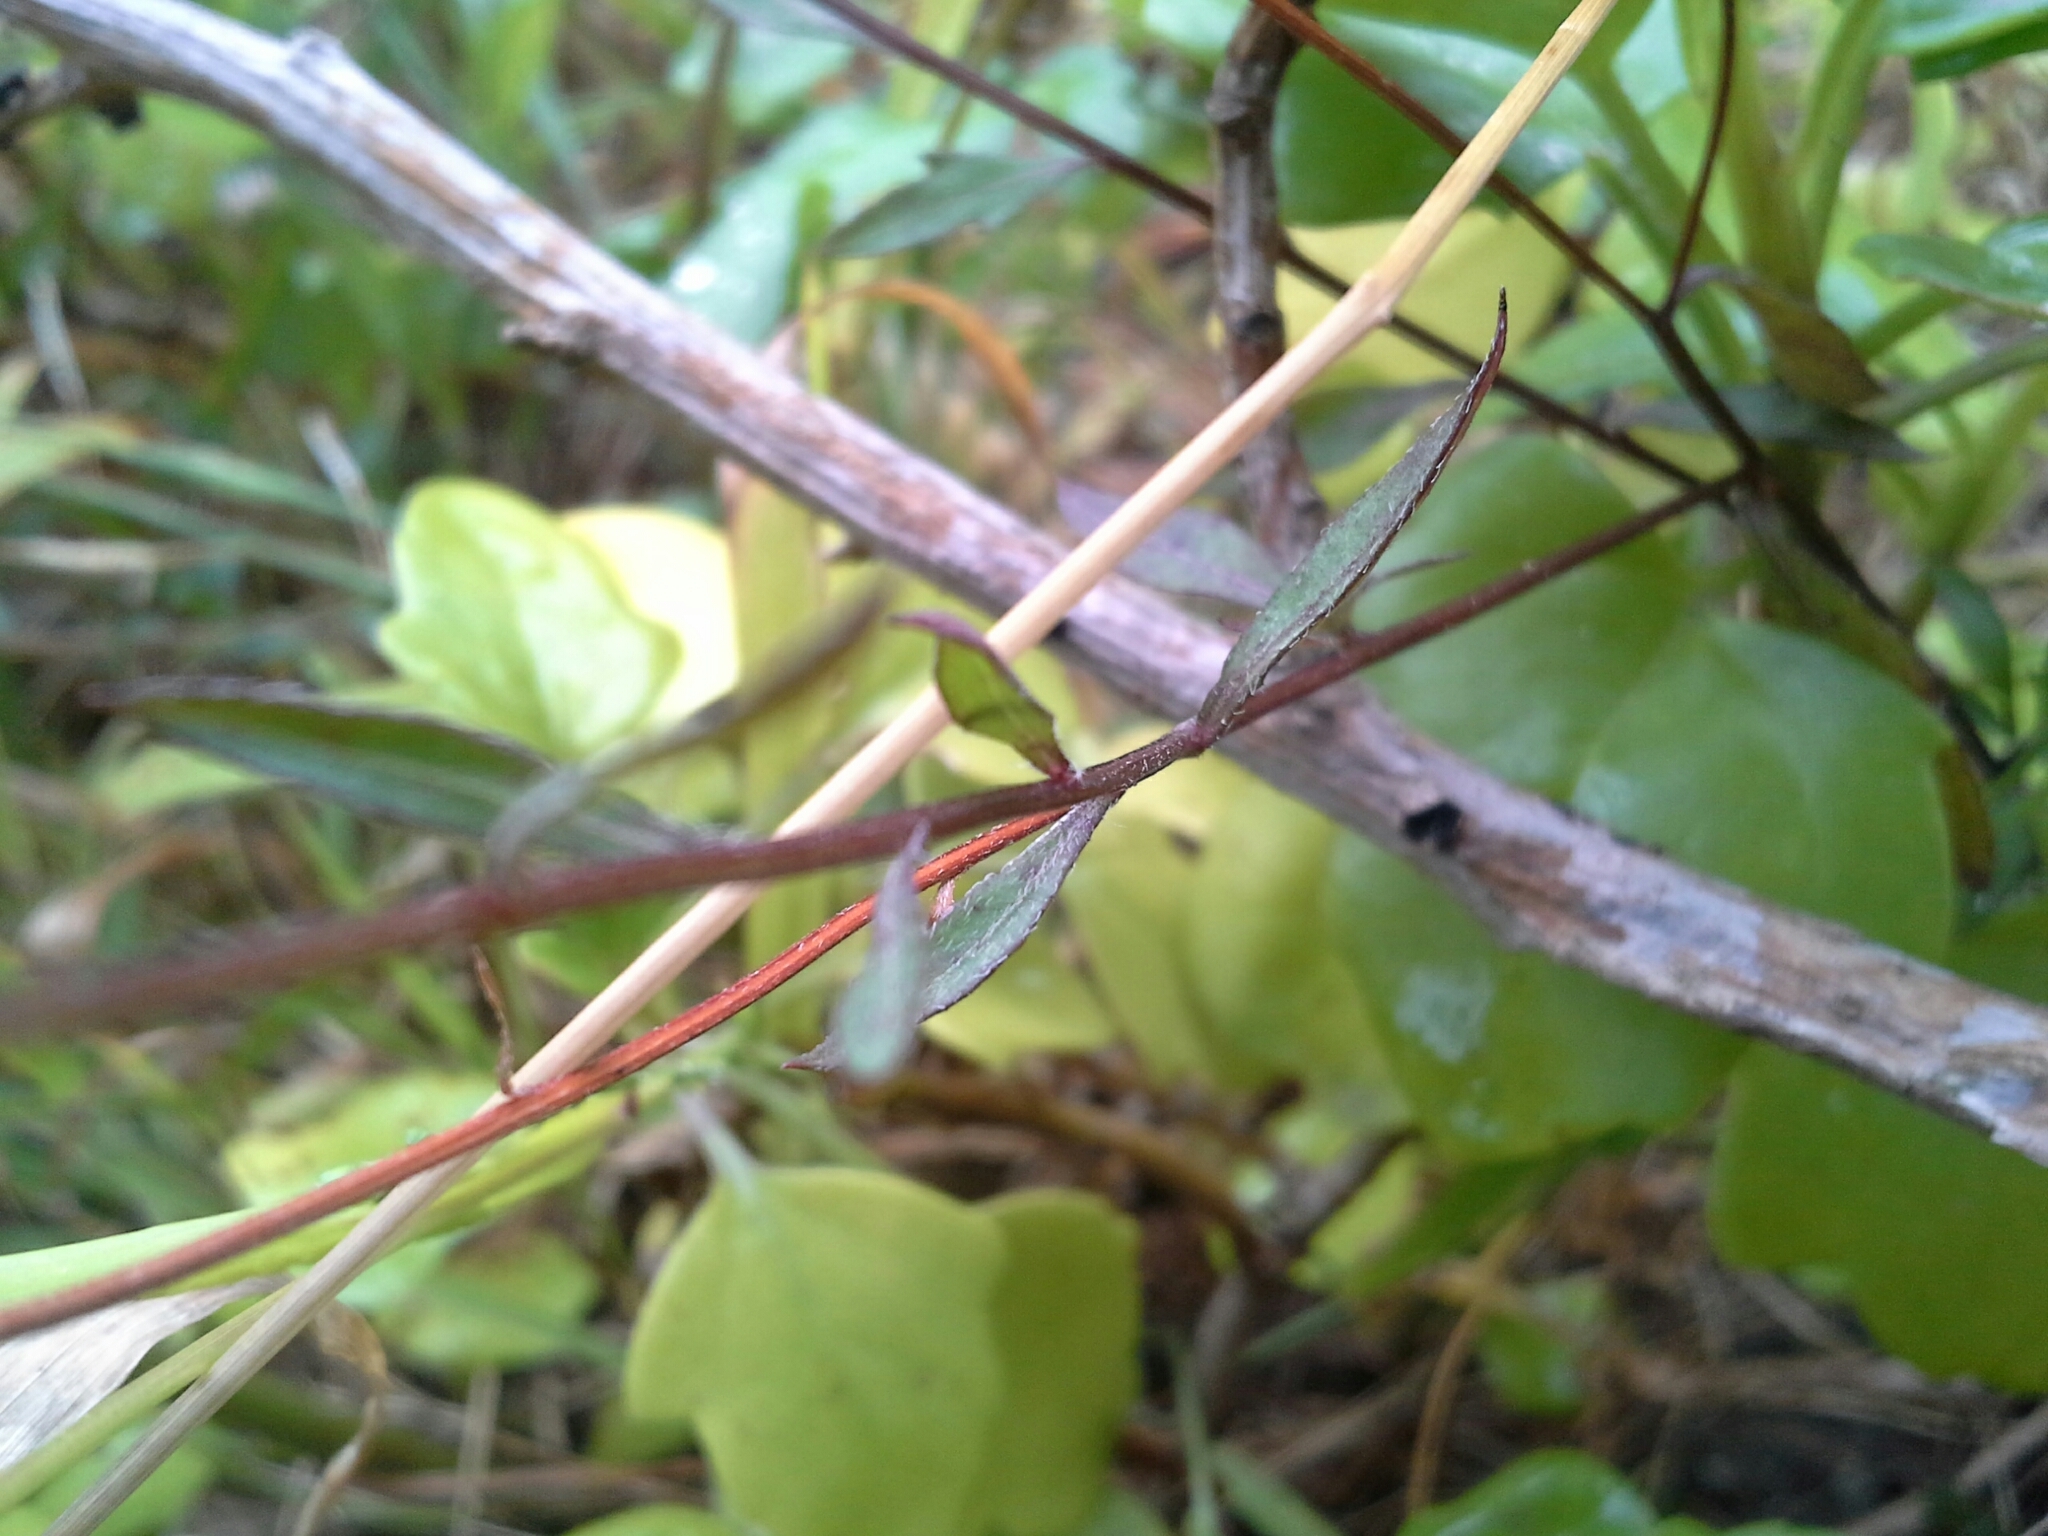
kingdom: Plantae
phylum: Tracheophyta
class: Magnoliopsida
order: Asterales
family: Asteraceae
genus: Erigeron
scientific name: Erigeron karvinskianus
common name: Mexican fleabane
